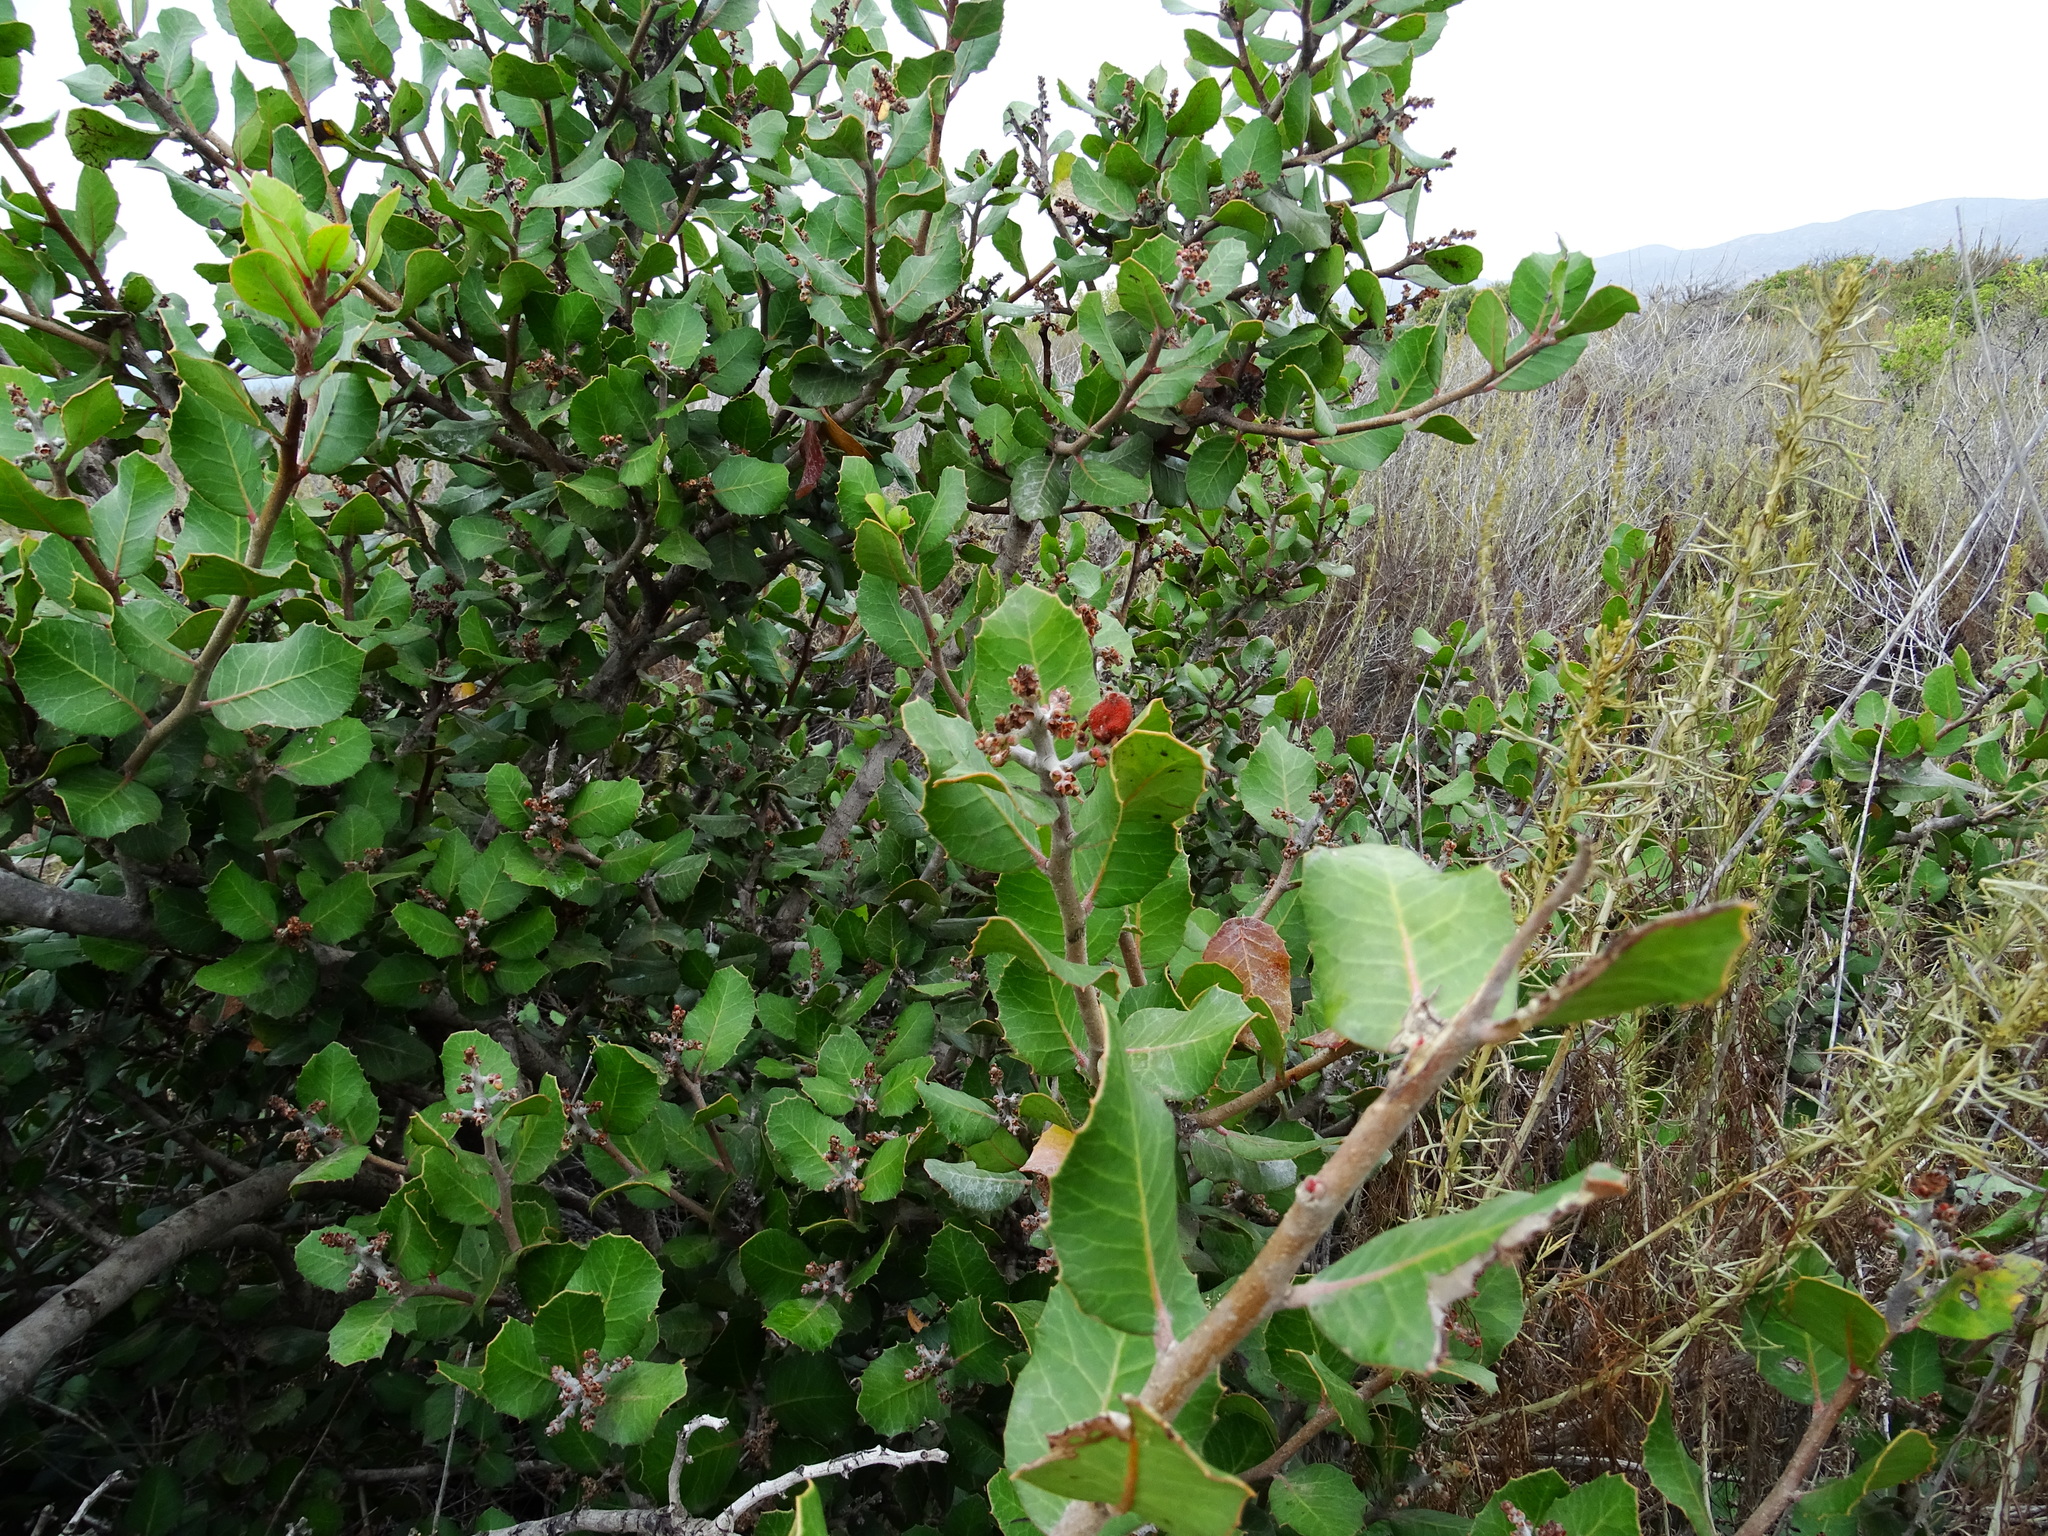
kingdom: Plantae
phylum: Tracheophyta
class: Magnoliopsida
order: Sapindales
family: Anacardiaceae
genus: Rhus
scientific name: Rhus integrifolia
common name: Lemonade sumac
